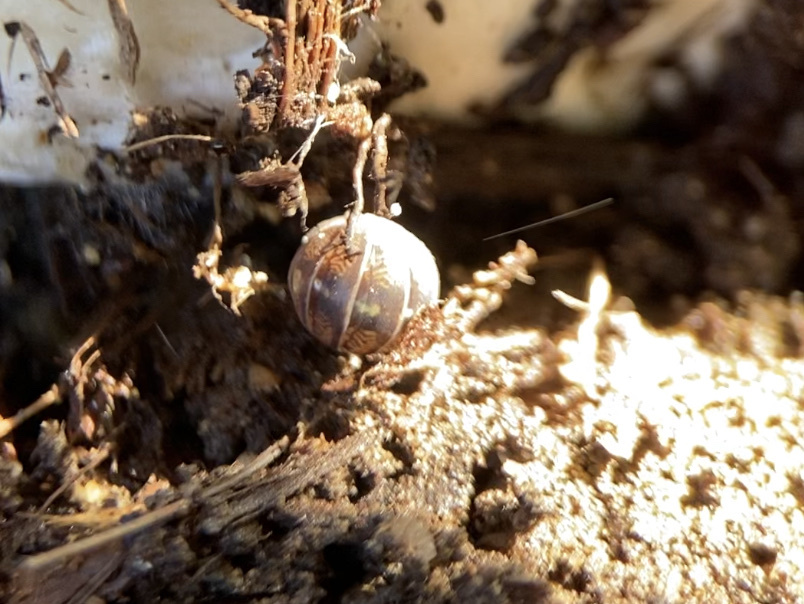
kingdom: Animalia
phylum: Arthropoda
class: Malacostraca
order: Isopoda
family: Armadillidiidae
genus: Armadillidium
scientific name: Armadillidium vulgare
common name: Common pill woodlouse
